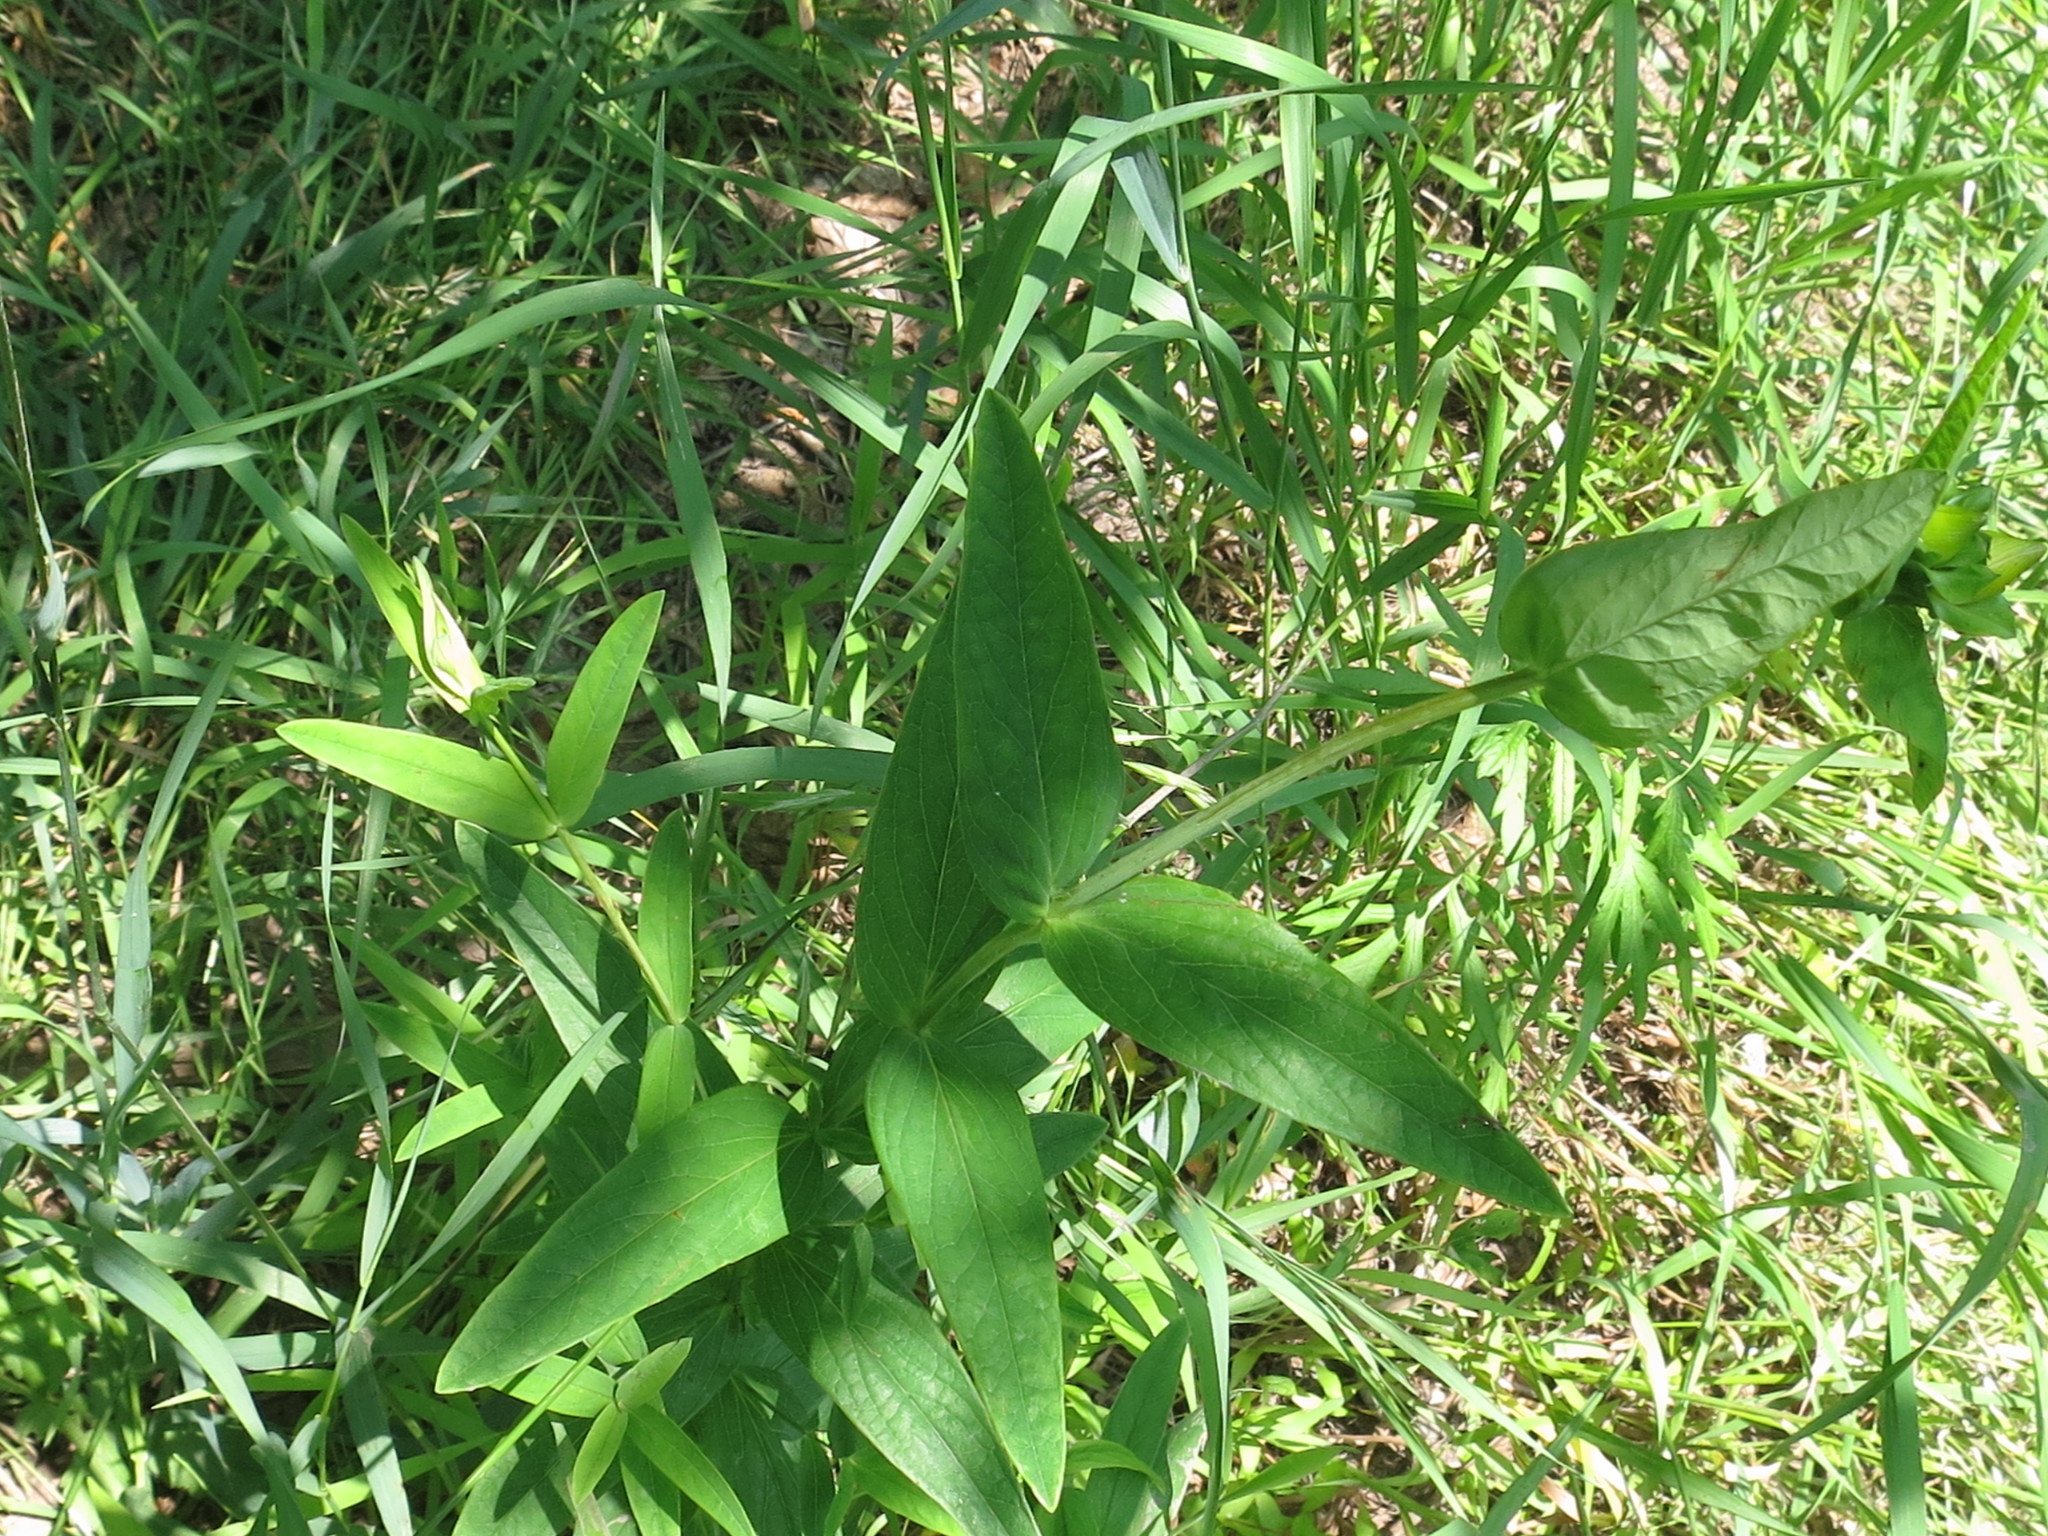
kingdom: Plantae
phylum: Tracheophyta
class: Magnoliopsida
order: Malpighiales
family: Hypericaceae
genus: Hypericum
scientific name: Hypericum ascyron
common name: Giant st. john's-wort
